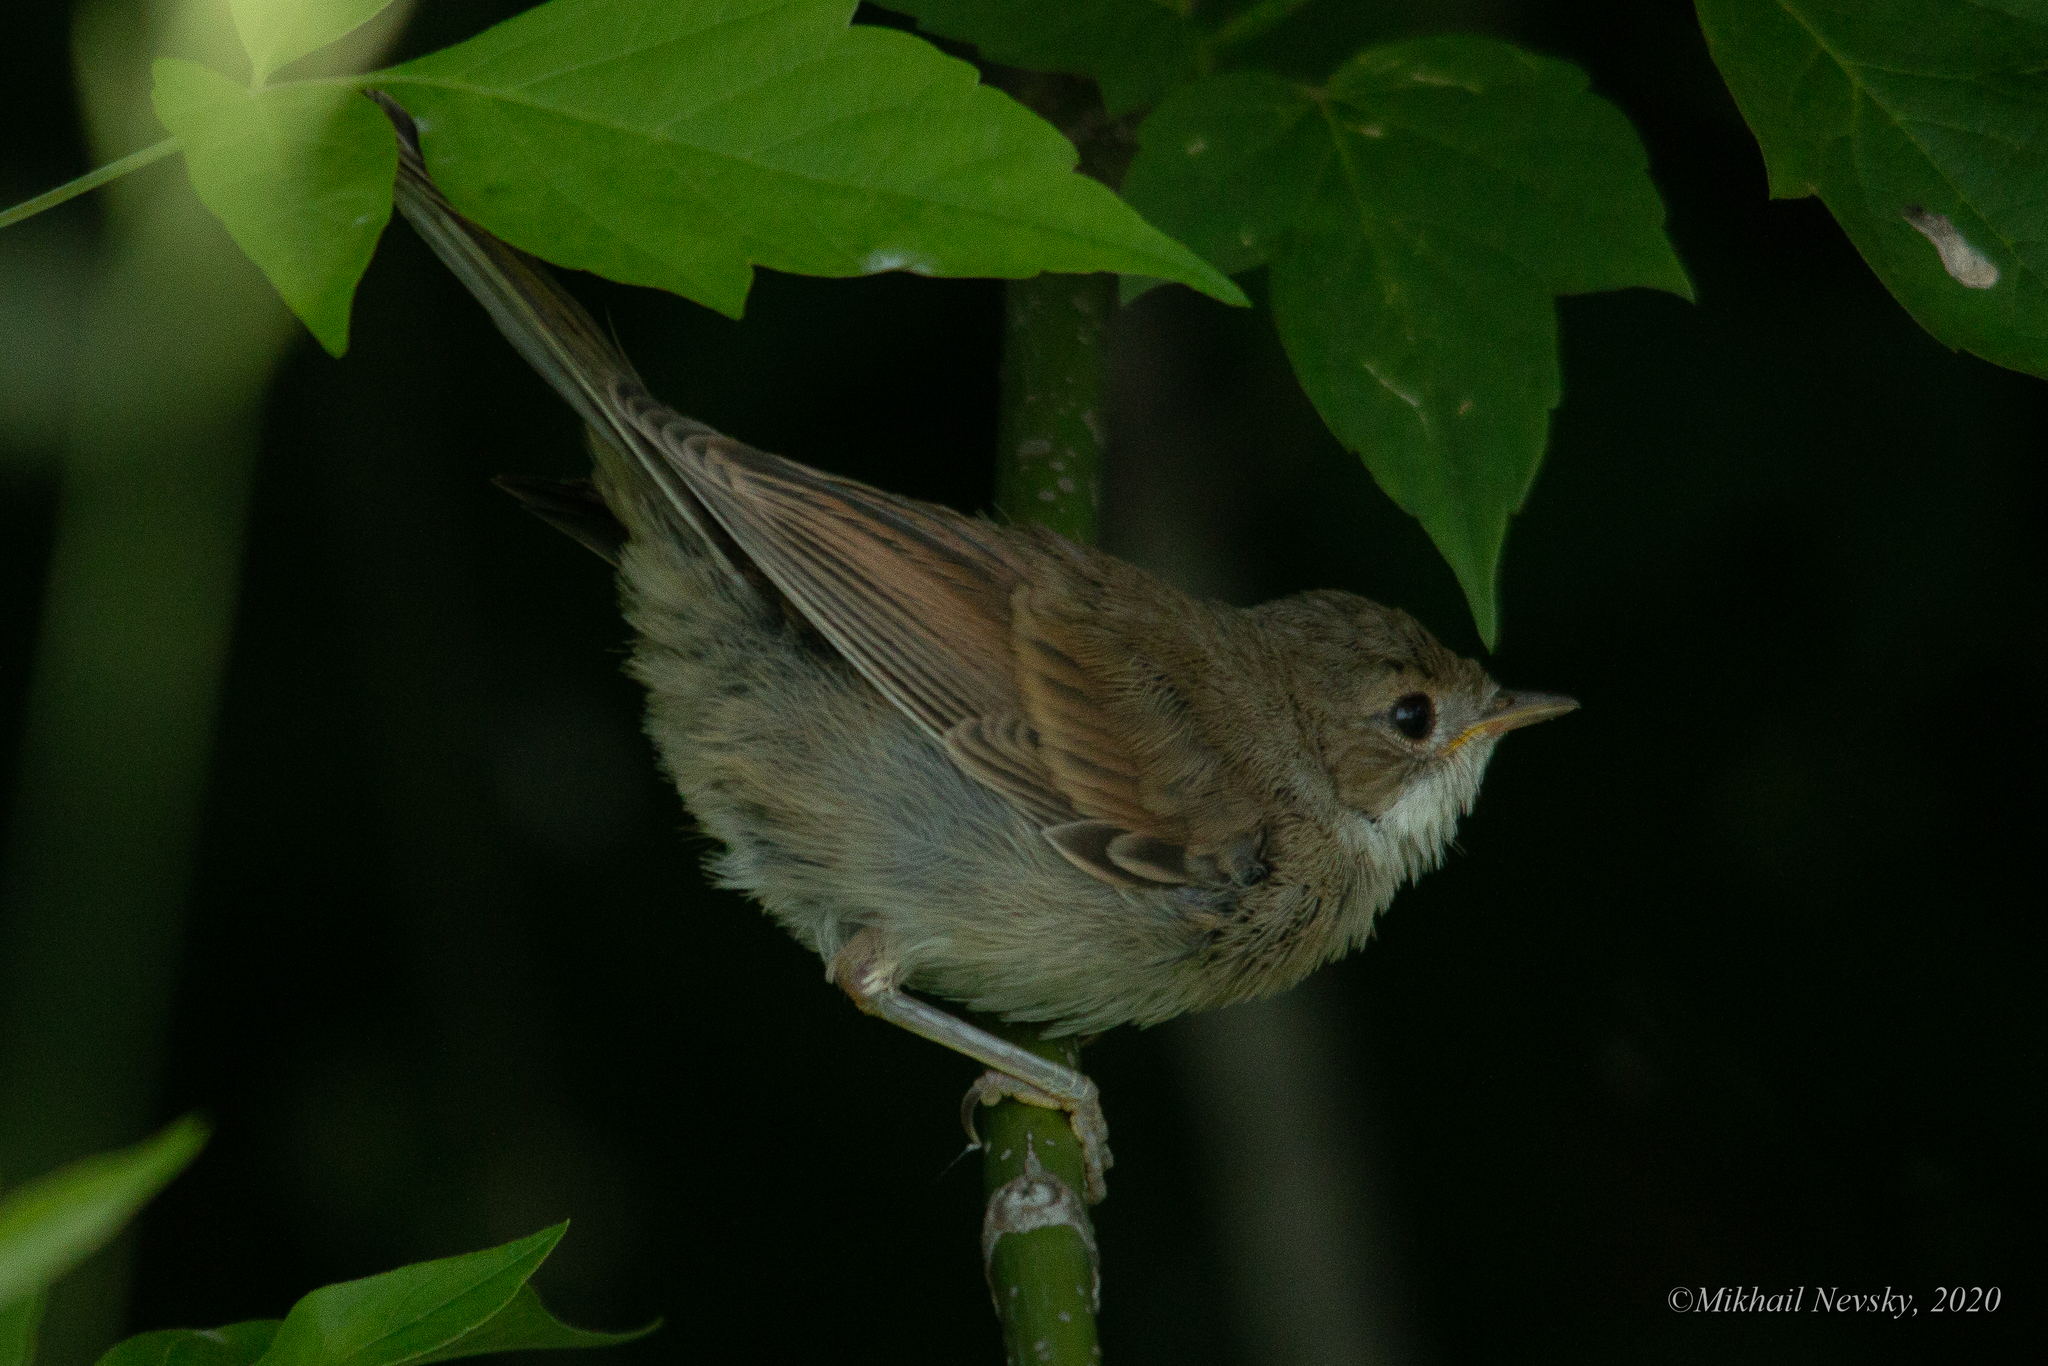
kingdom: Animalia
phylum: Chordata
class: Aves
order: Passeriformes
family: Sylviidae
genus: Sylvia
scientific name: Sylvia communis
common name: Common whitethroat
